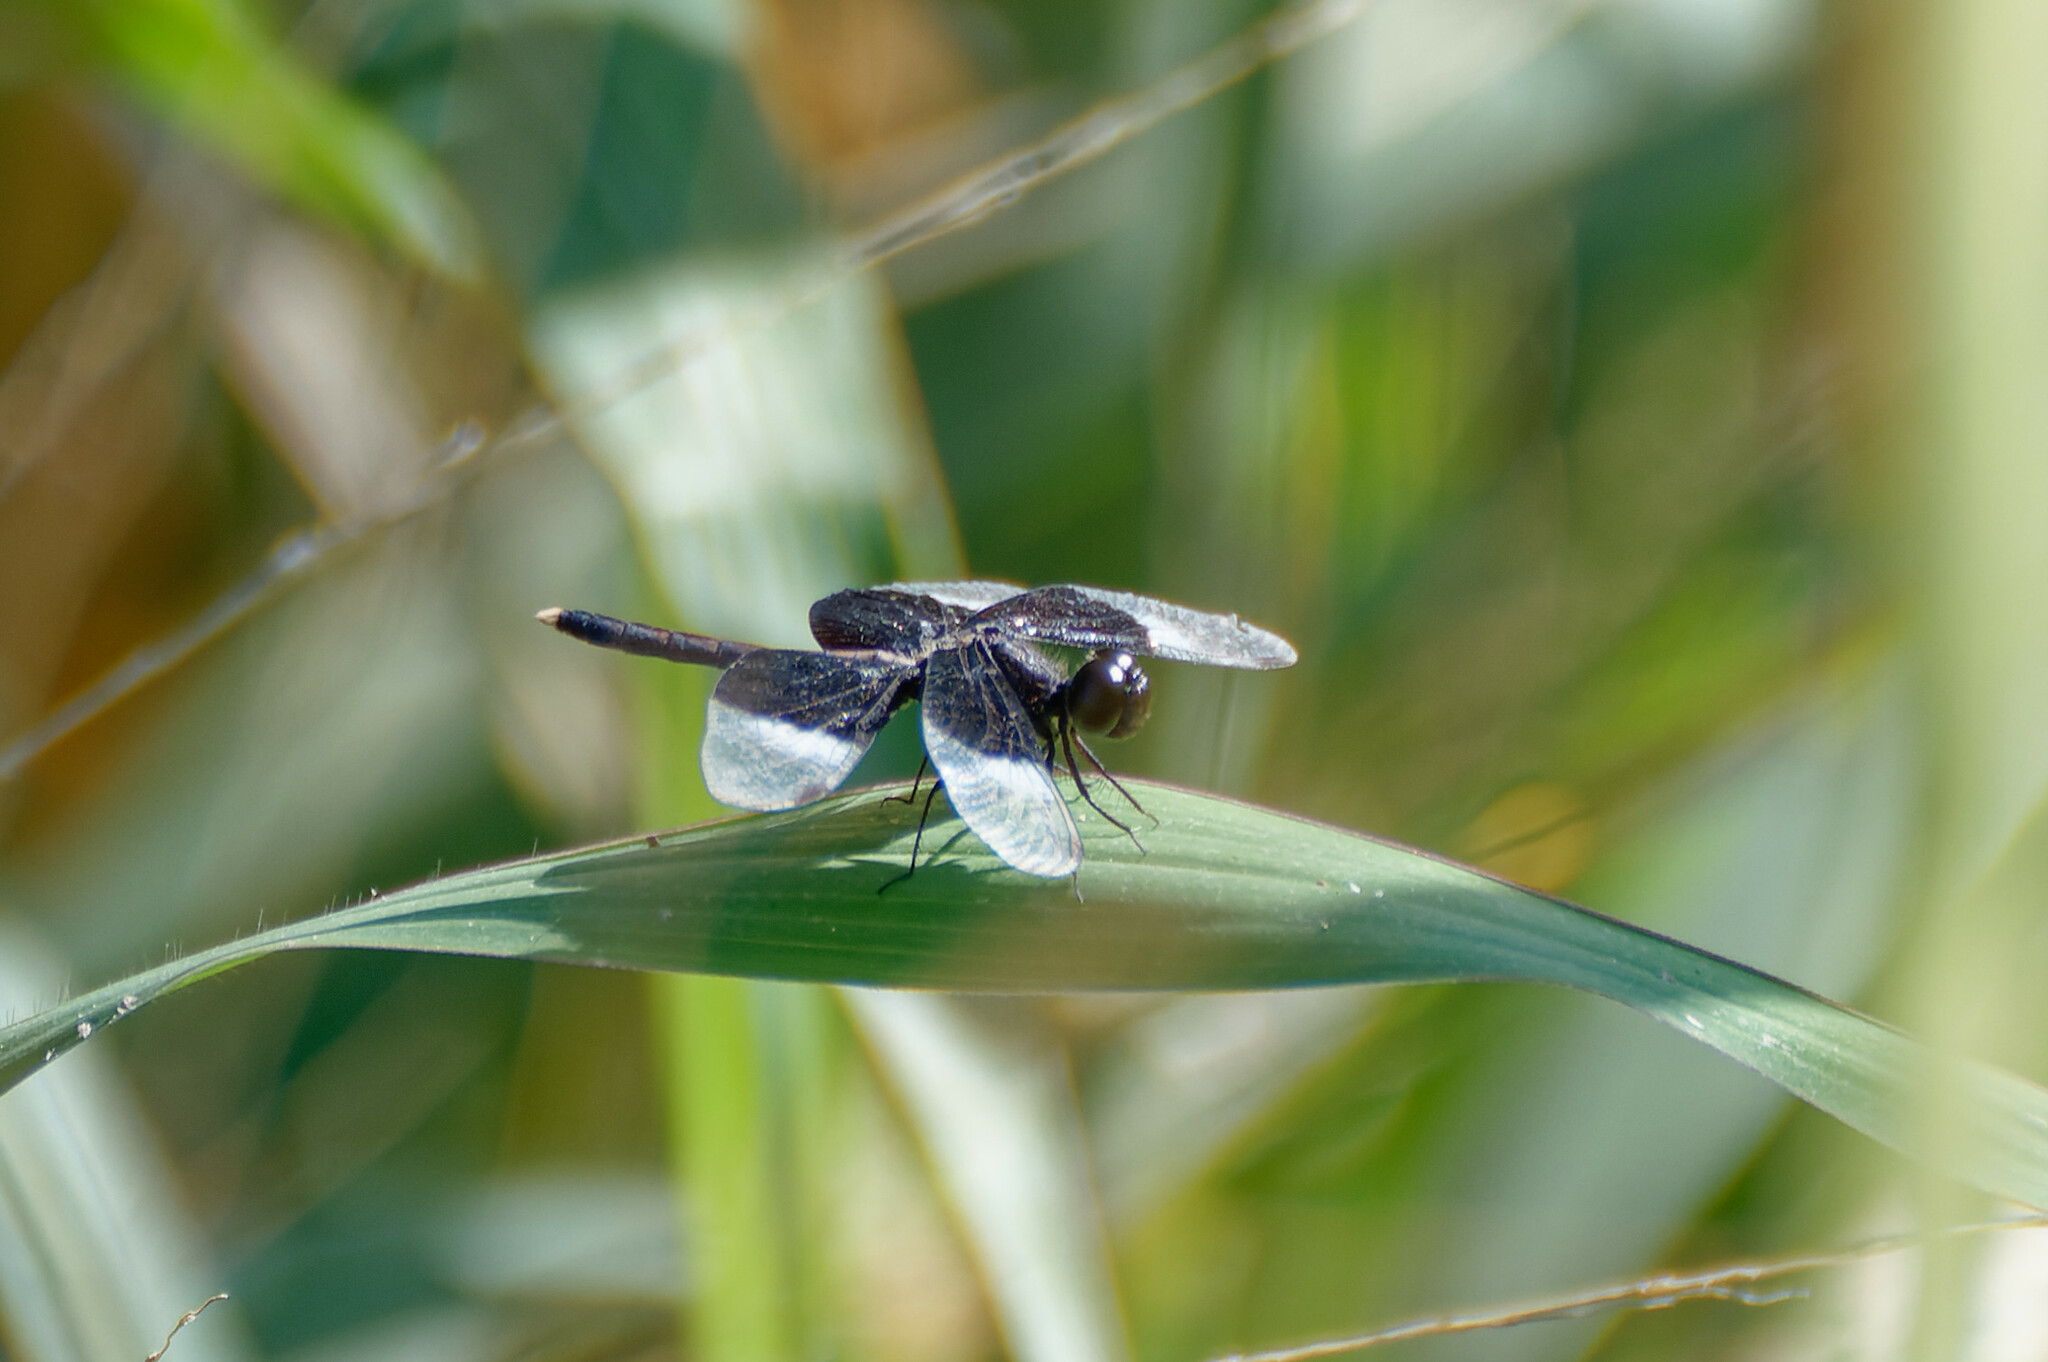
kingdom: Animalia
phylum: Arthropoda
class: Insecta
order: Odonata
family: Libellulidae
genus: Neurothemis
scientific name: Neurothemis tullia
